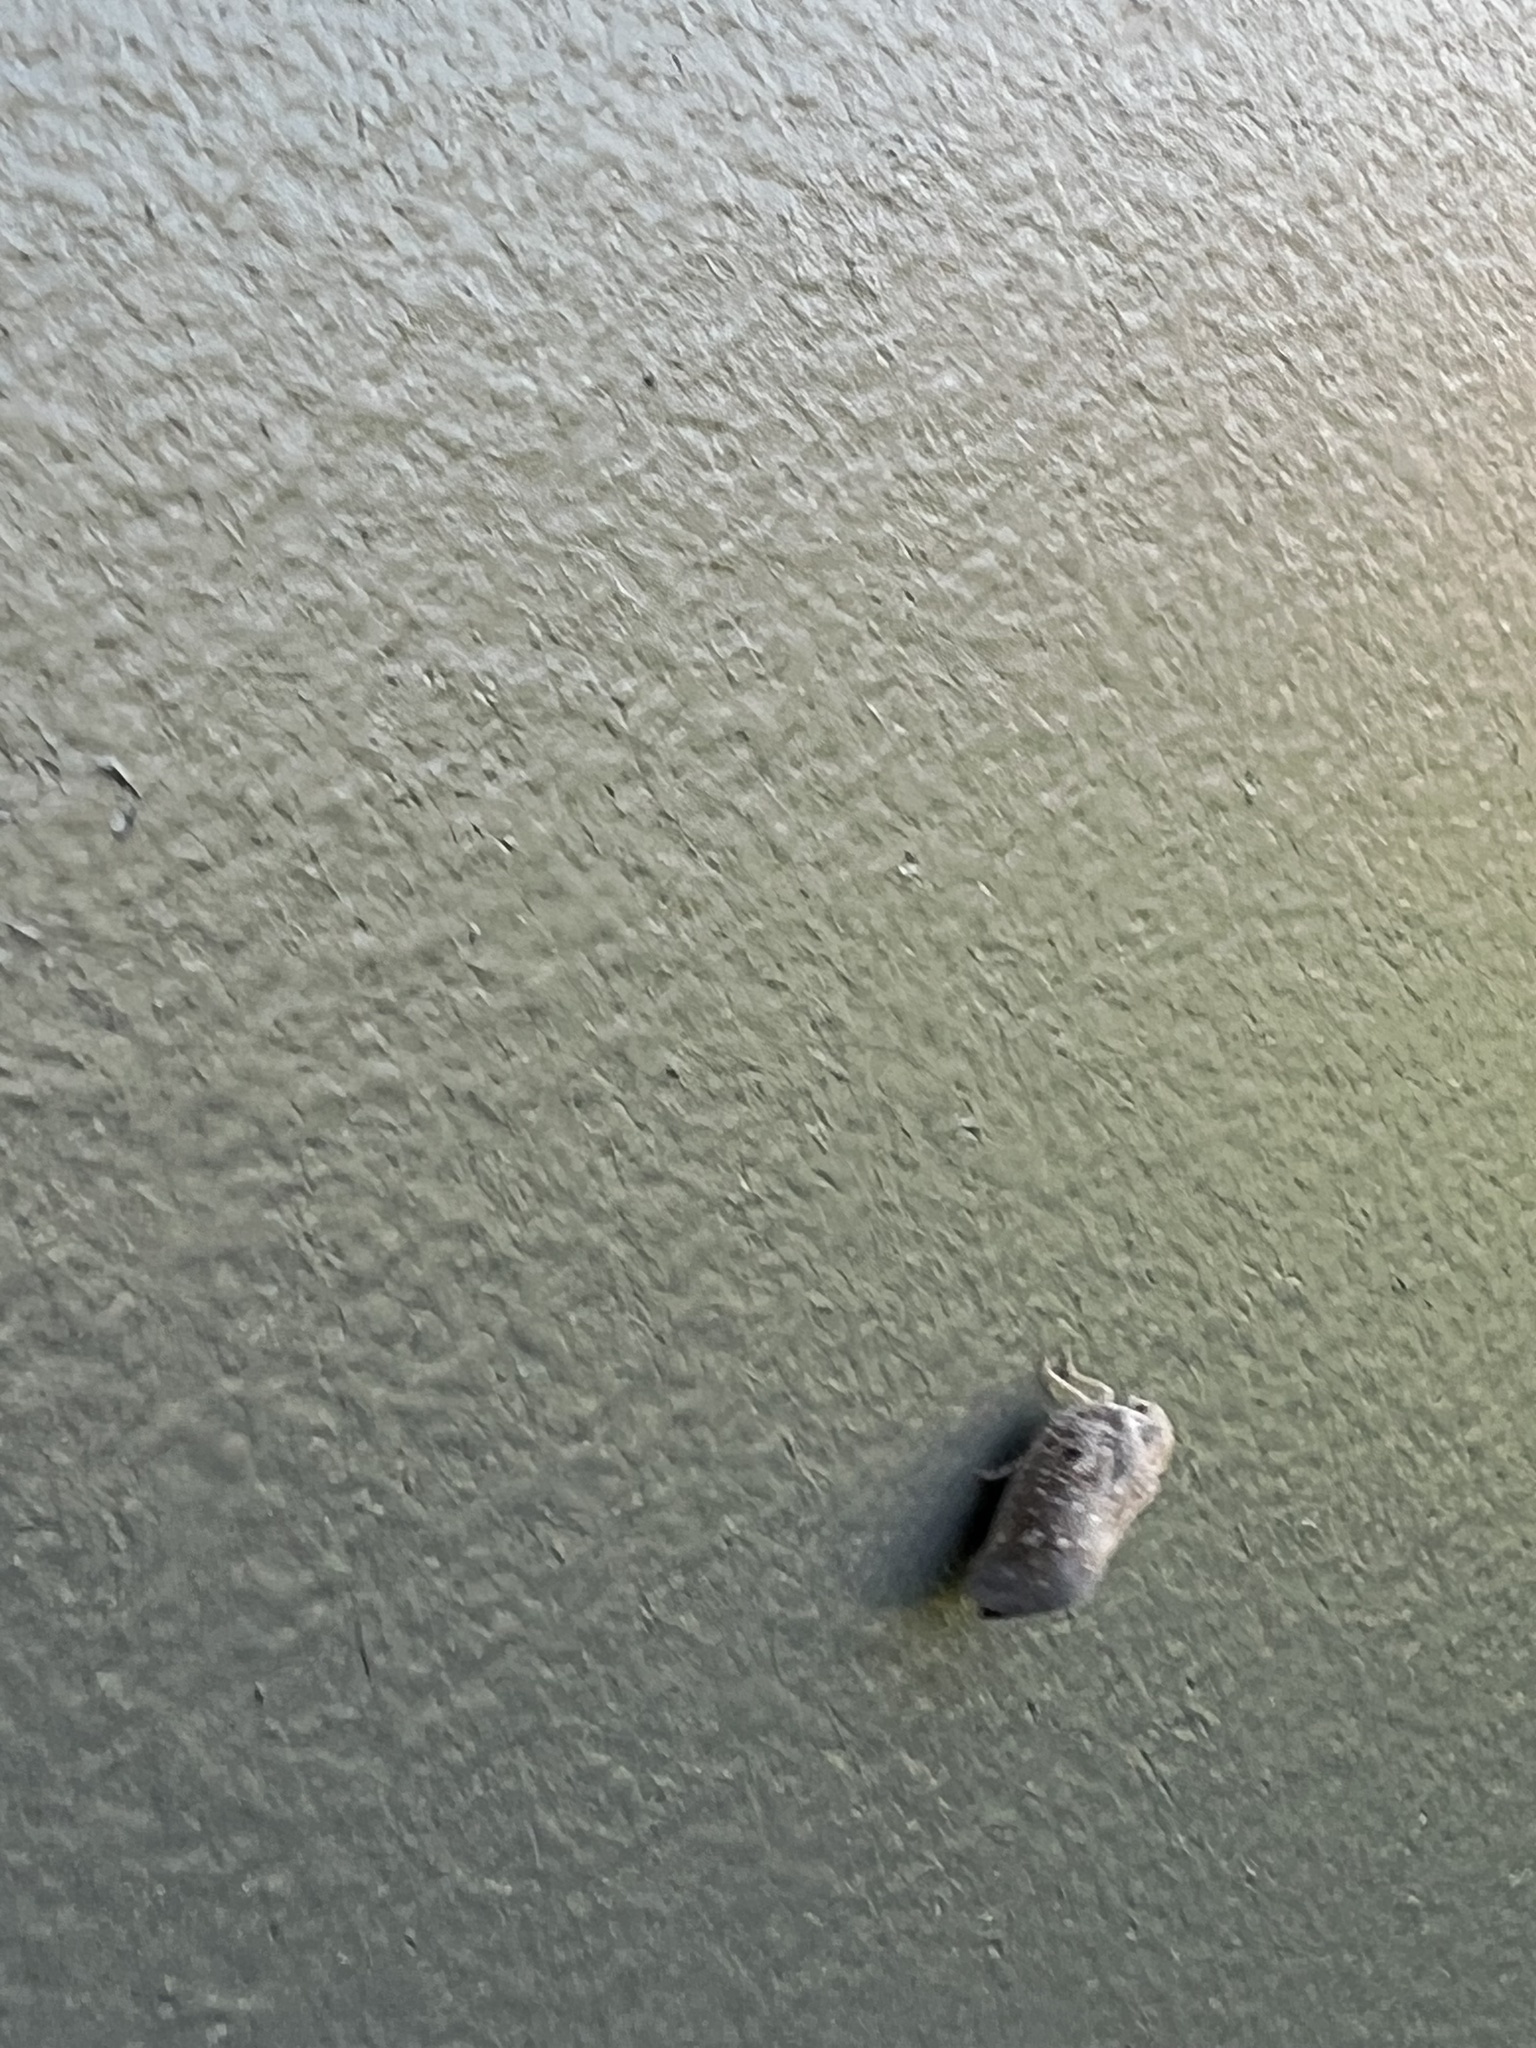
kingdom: Animalia
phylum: Arthropoda
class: Insecta
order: Hemiptera
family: Flatidae
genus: Metcalfa
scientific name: Metcalfa pruinosa
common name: Citrus flatid planthopper
